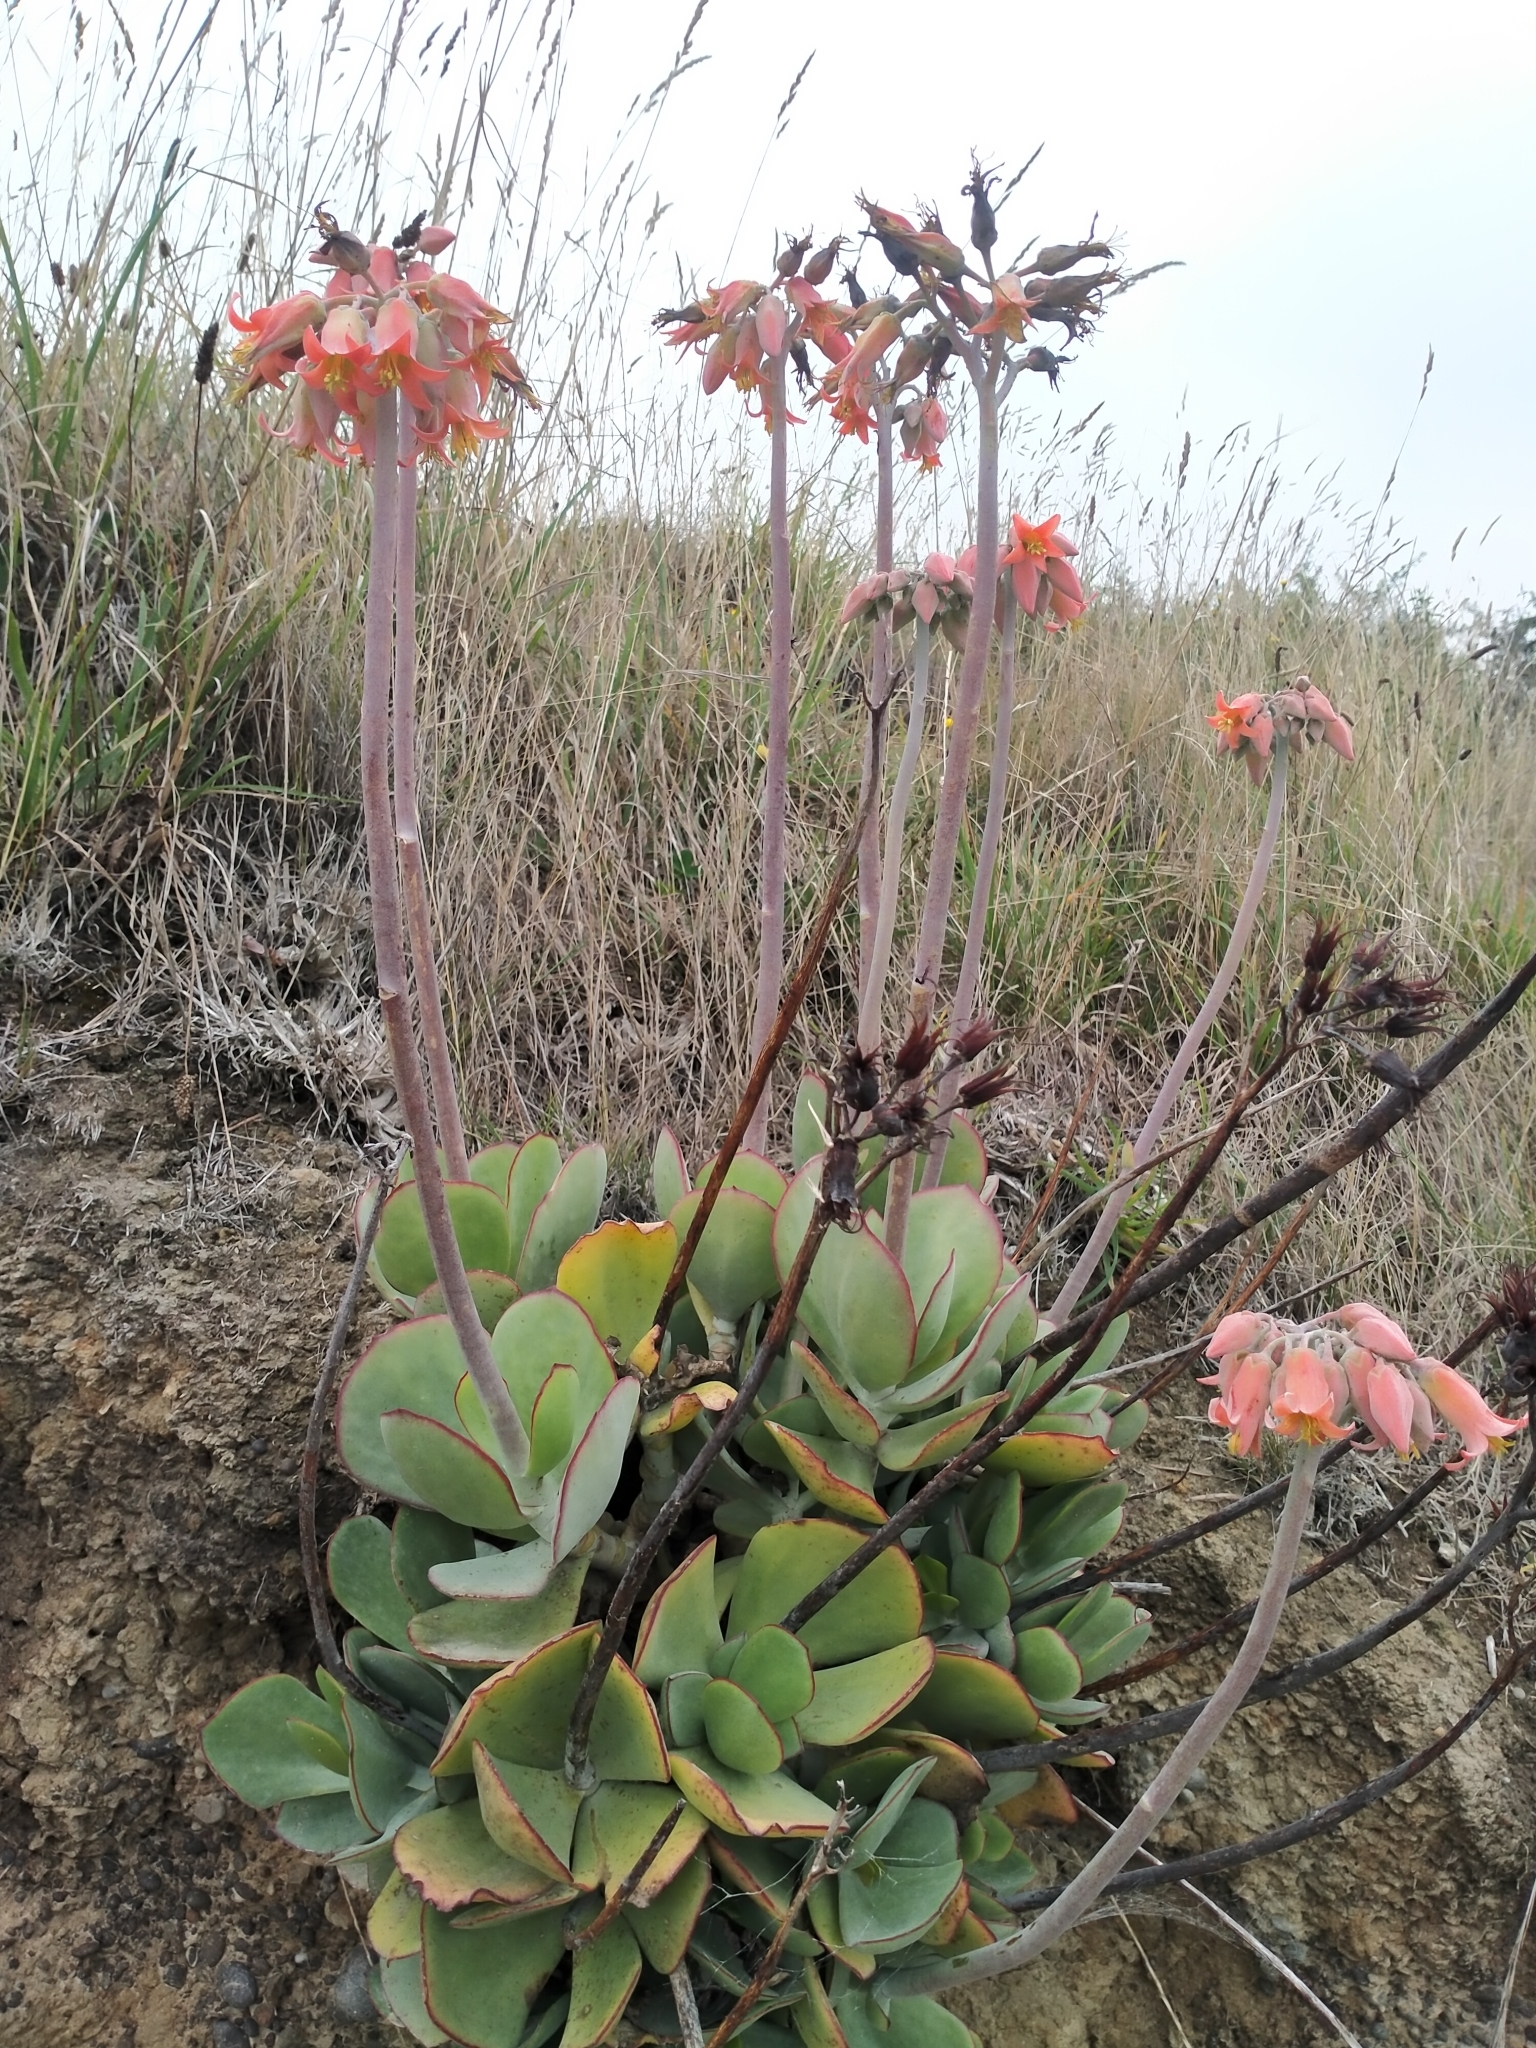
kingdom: Plantae
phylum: Tracheophyta
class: Magnoliopsida
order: Saxifragales
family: Crassulaceae
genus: Cotyledon
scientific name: Cotyledon orbiculata
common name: Pig's ear
